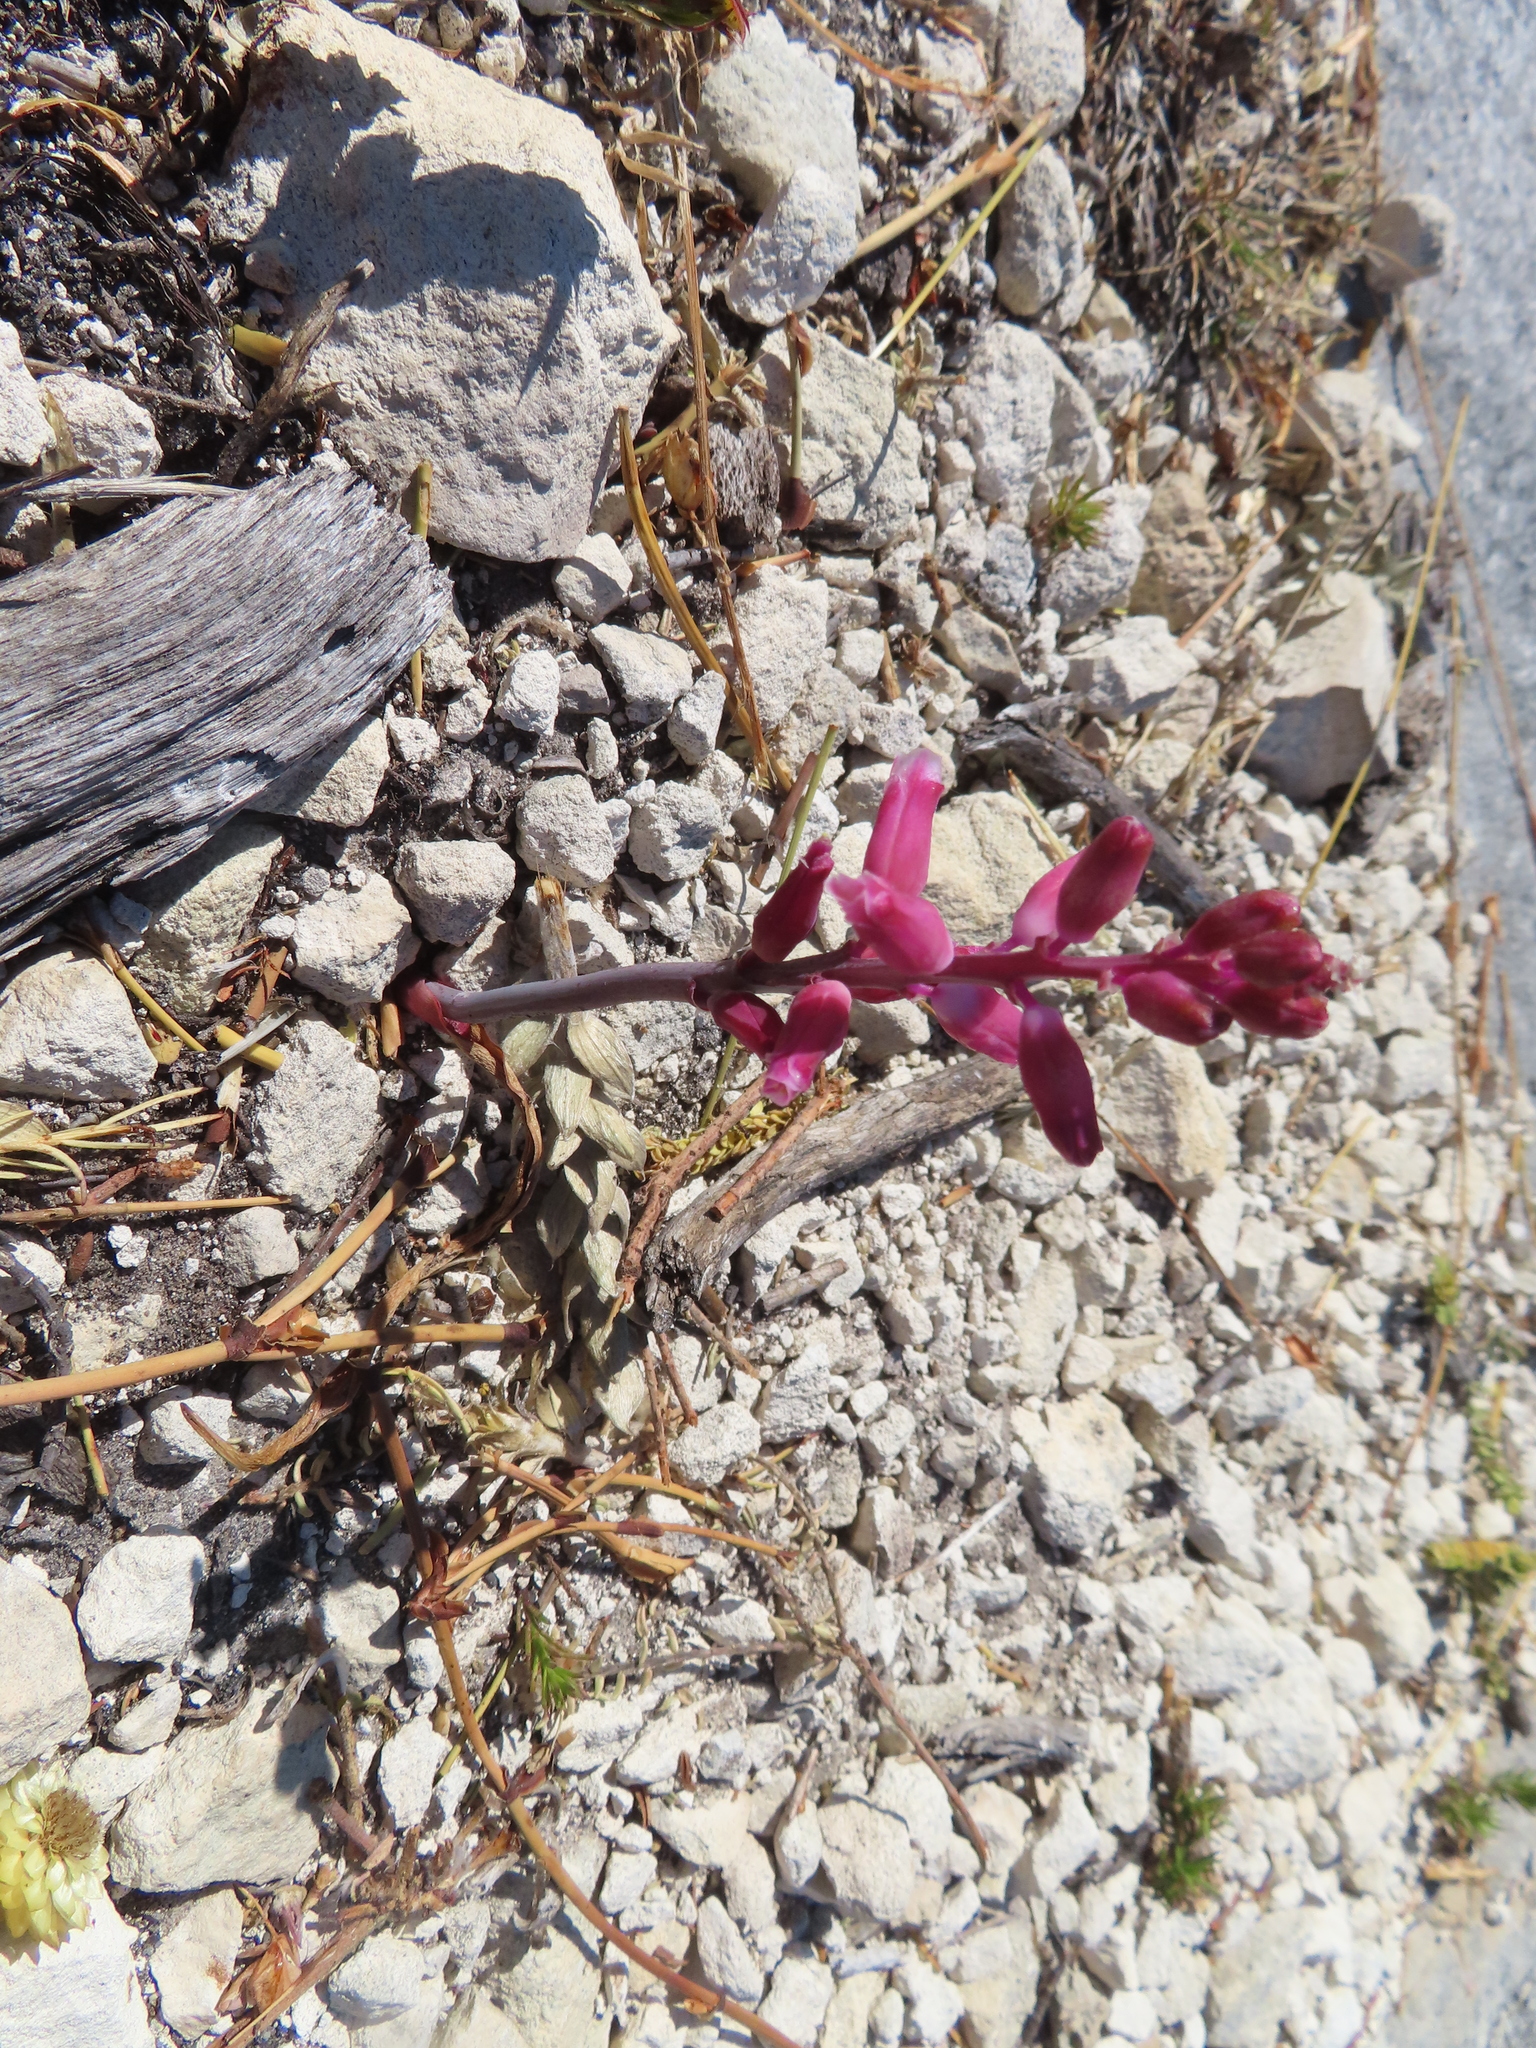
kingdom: Plantae
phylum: Tracheophyta
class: Liliopsida
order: Asparagales
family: Asparagaceae
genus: Lachenalia
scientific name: Lachenalia rosea
